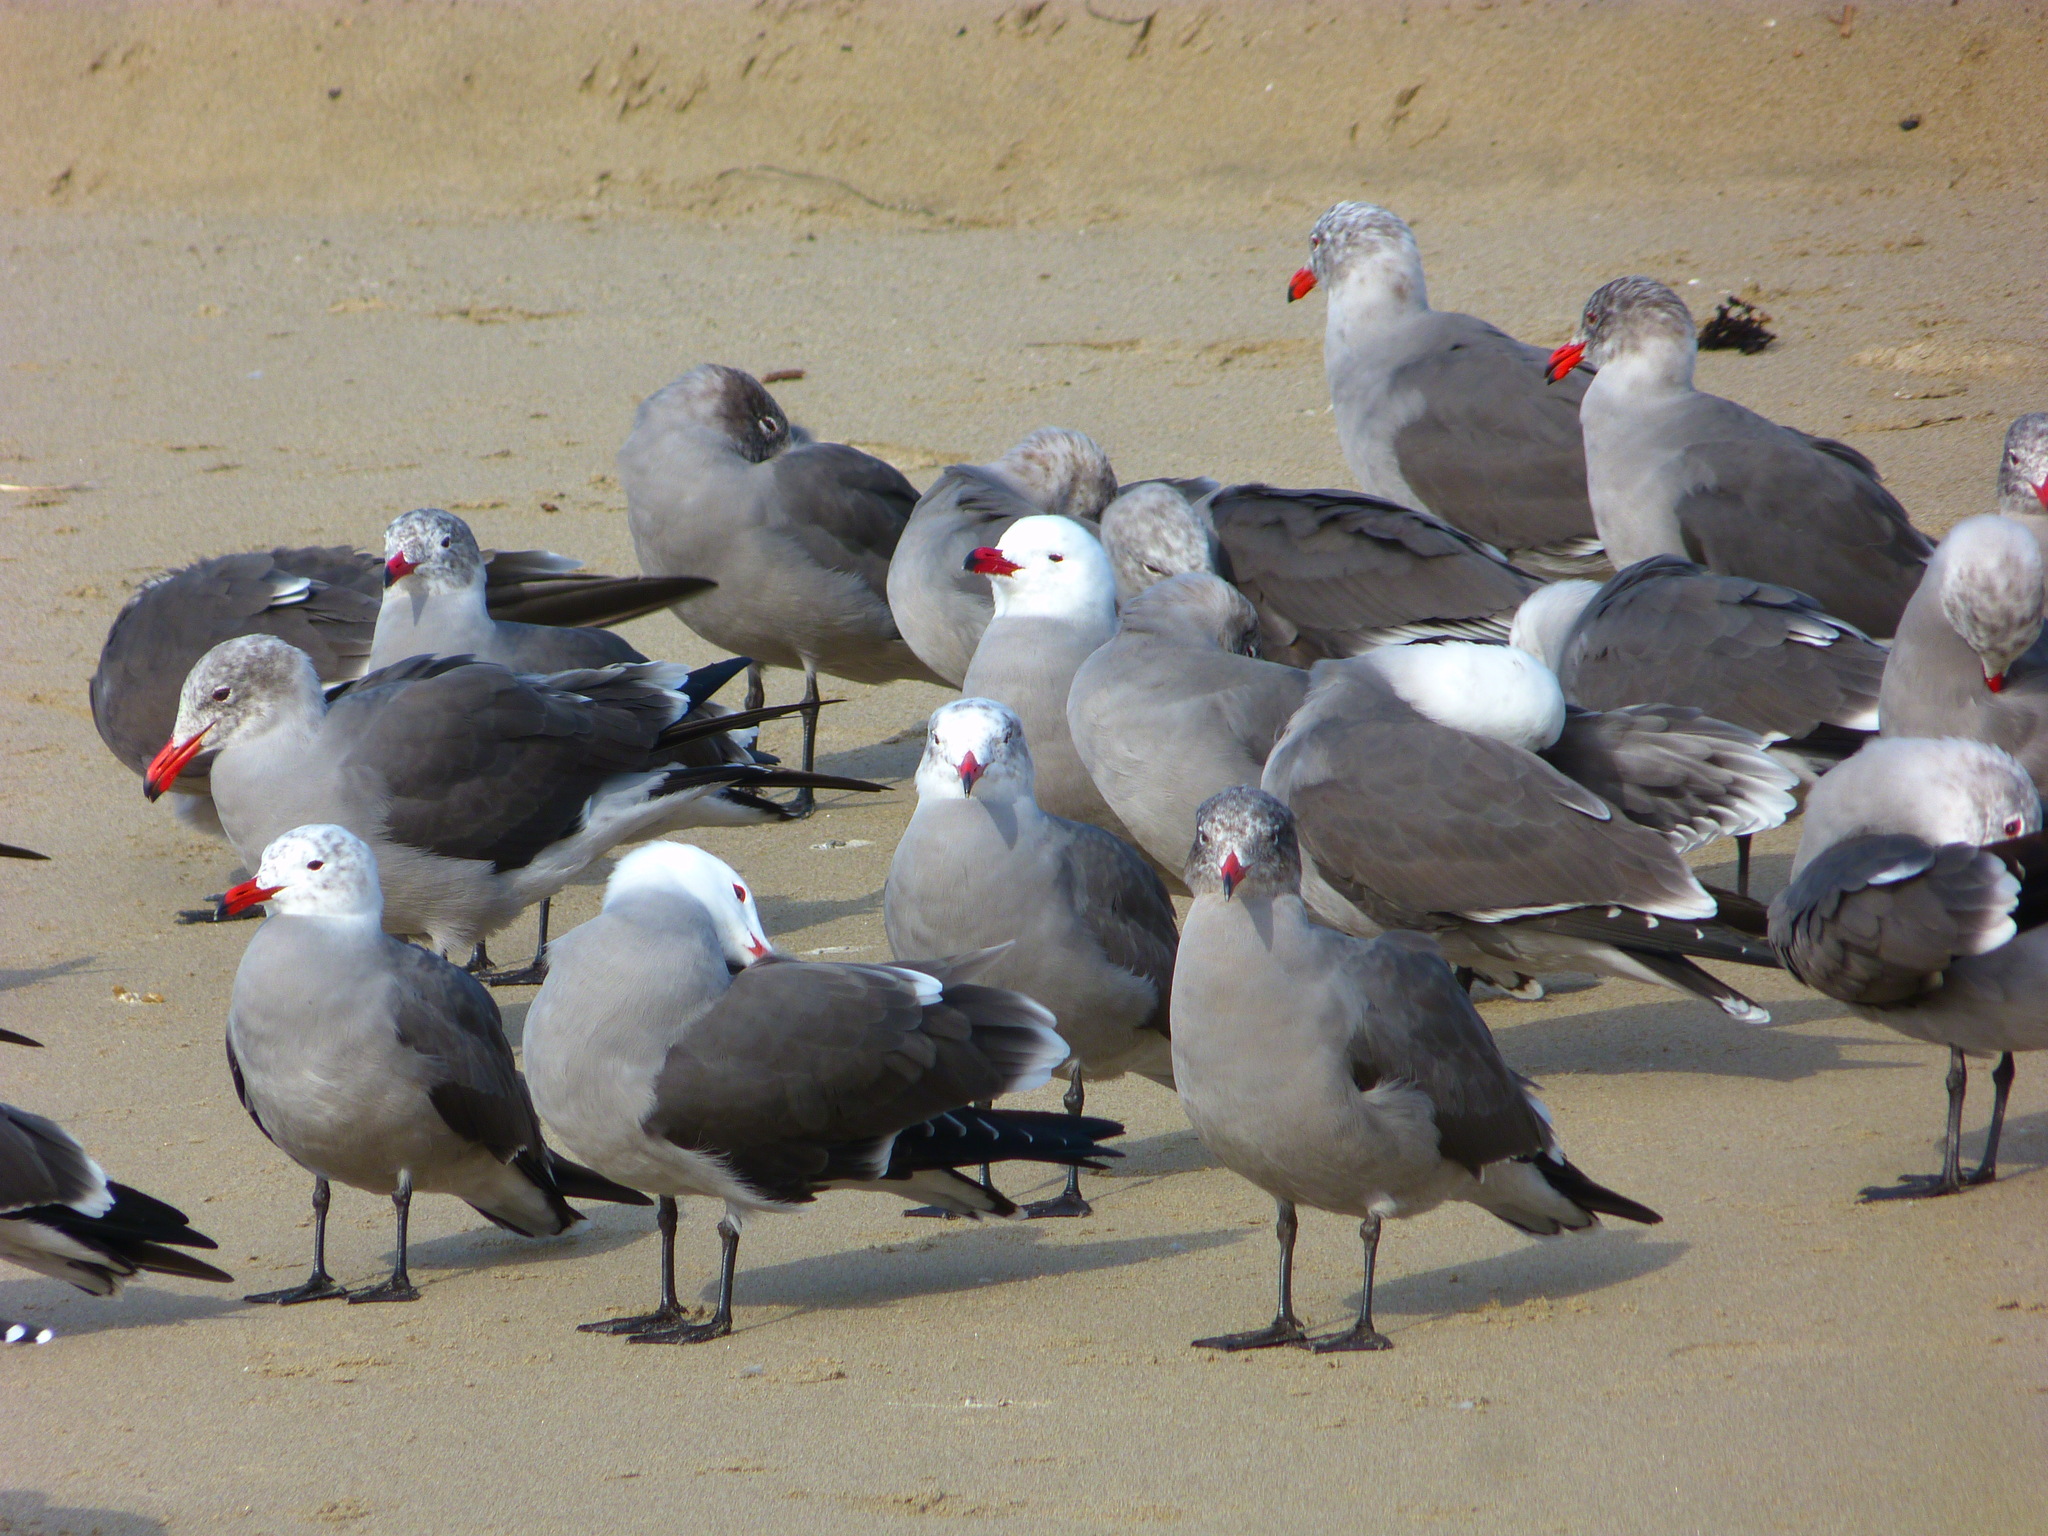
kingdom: Animalia
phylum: Chordata
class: Aves
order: Charadriiformes
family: Laridae
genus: Larus
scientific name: Larus heermanni
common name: Heermann's gull
